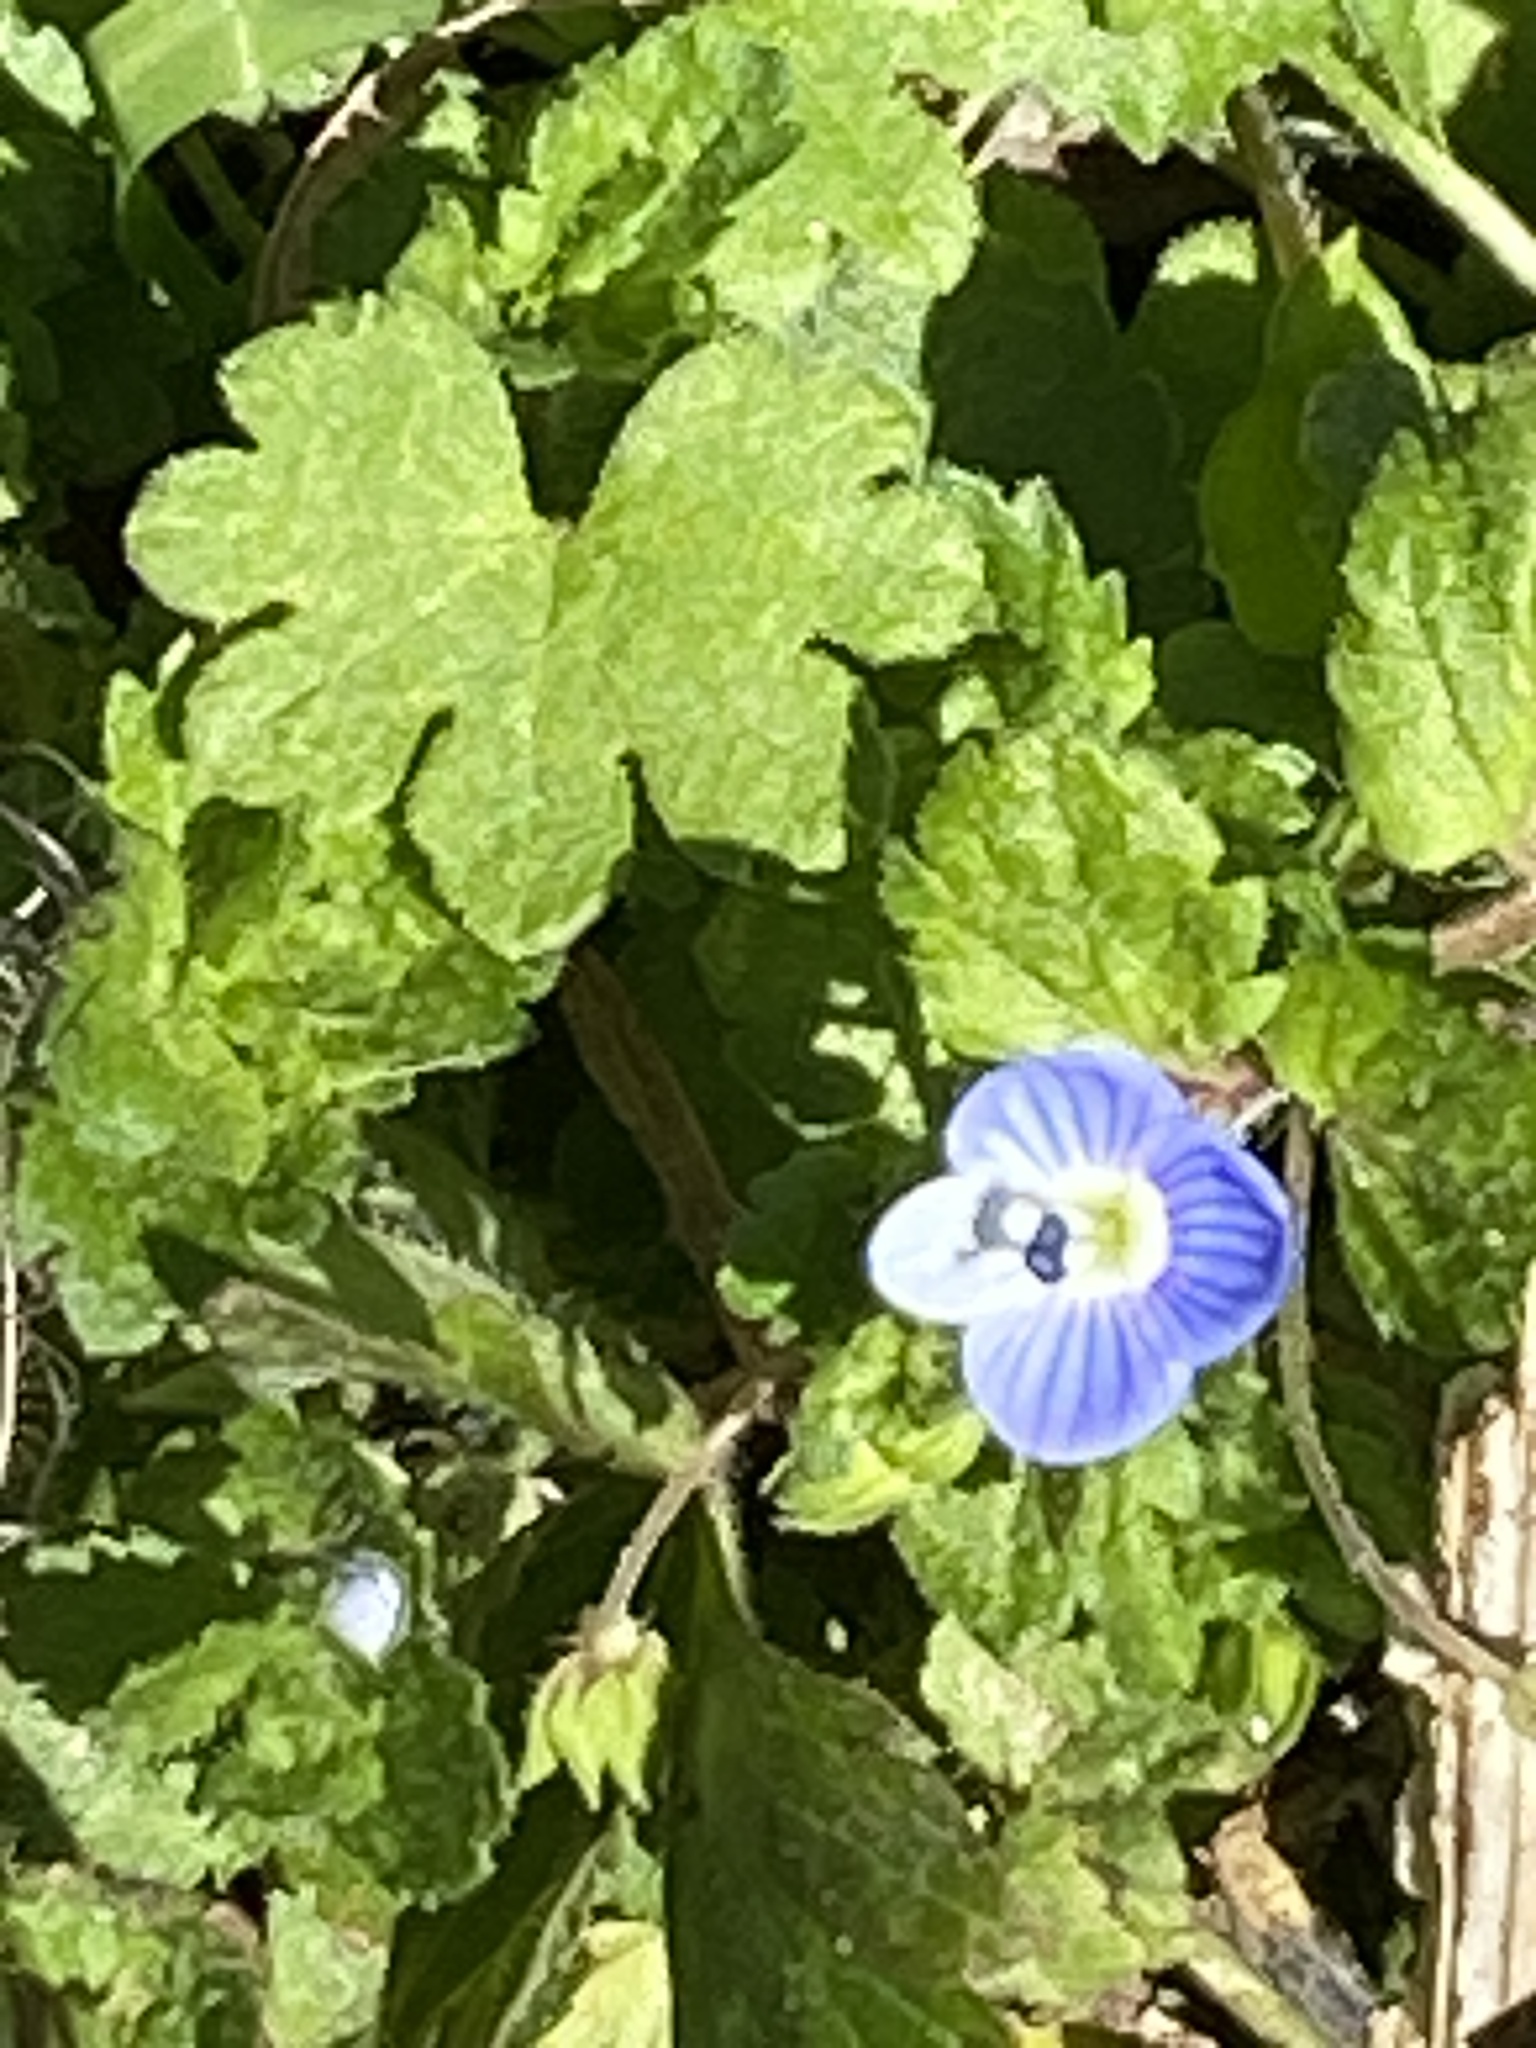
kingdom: Plantae
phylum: Tracheophyta
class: Magnoliopsida
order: Lamiales
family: Plantaginaceae
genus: Veronica
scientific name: Veronica persica
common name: Common field-speedwell
